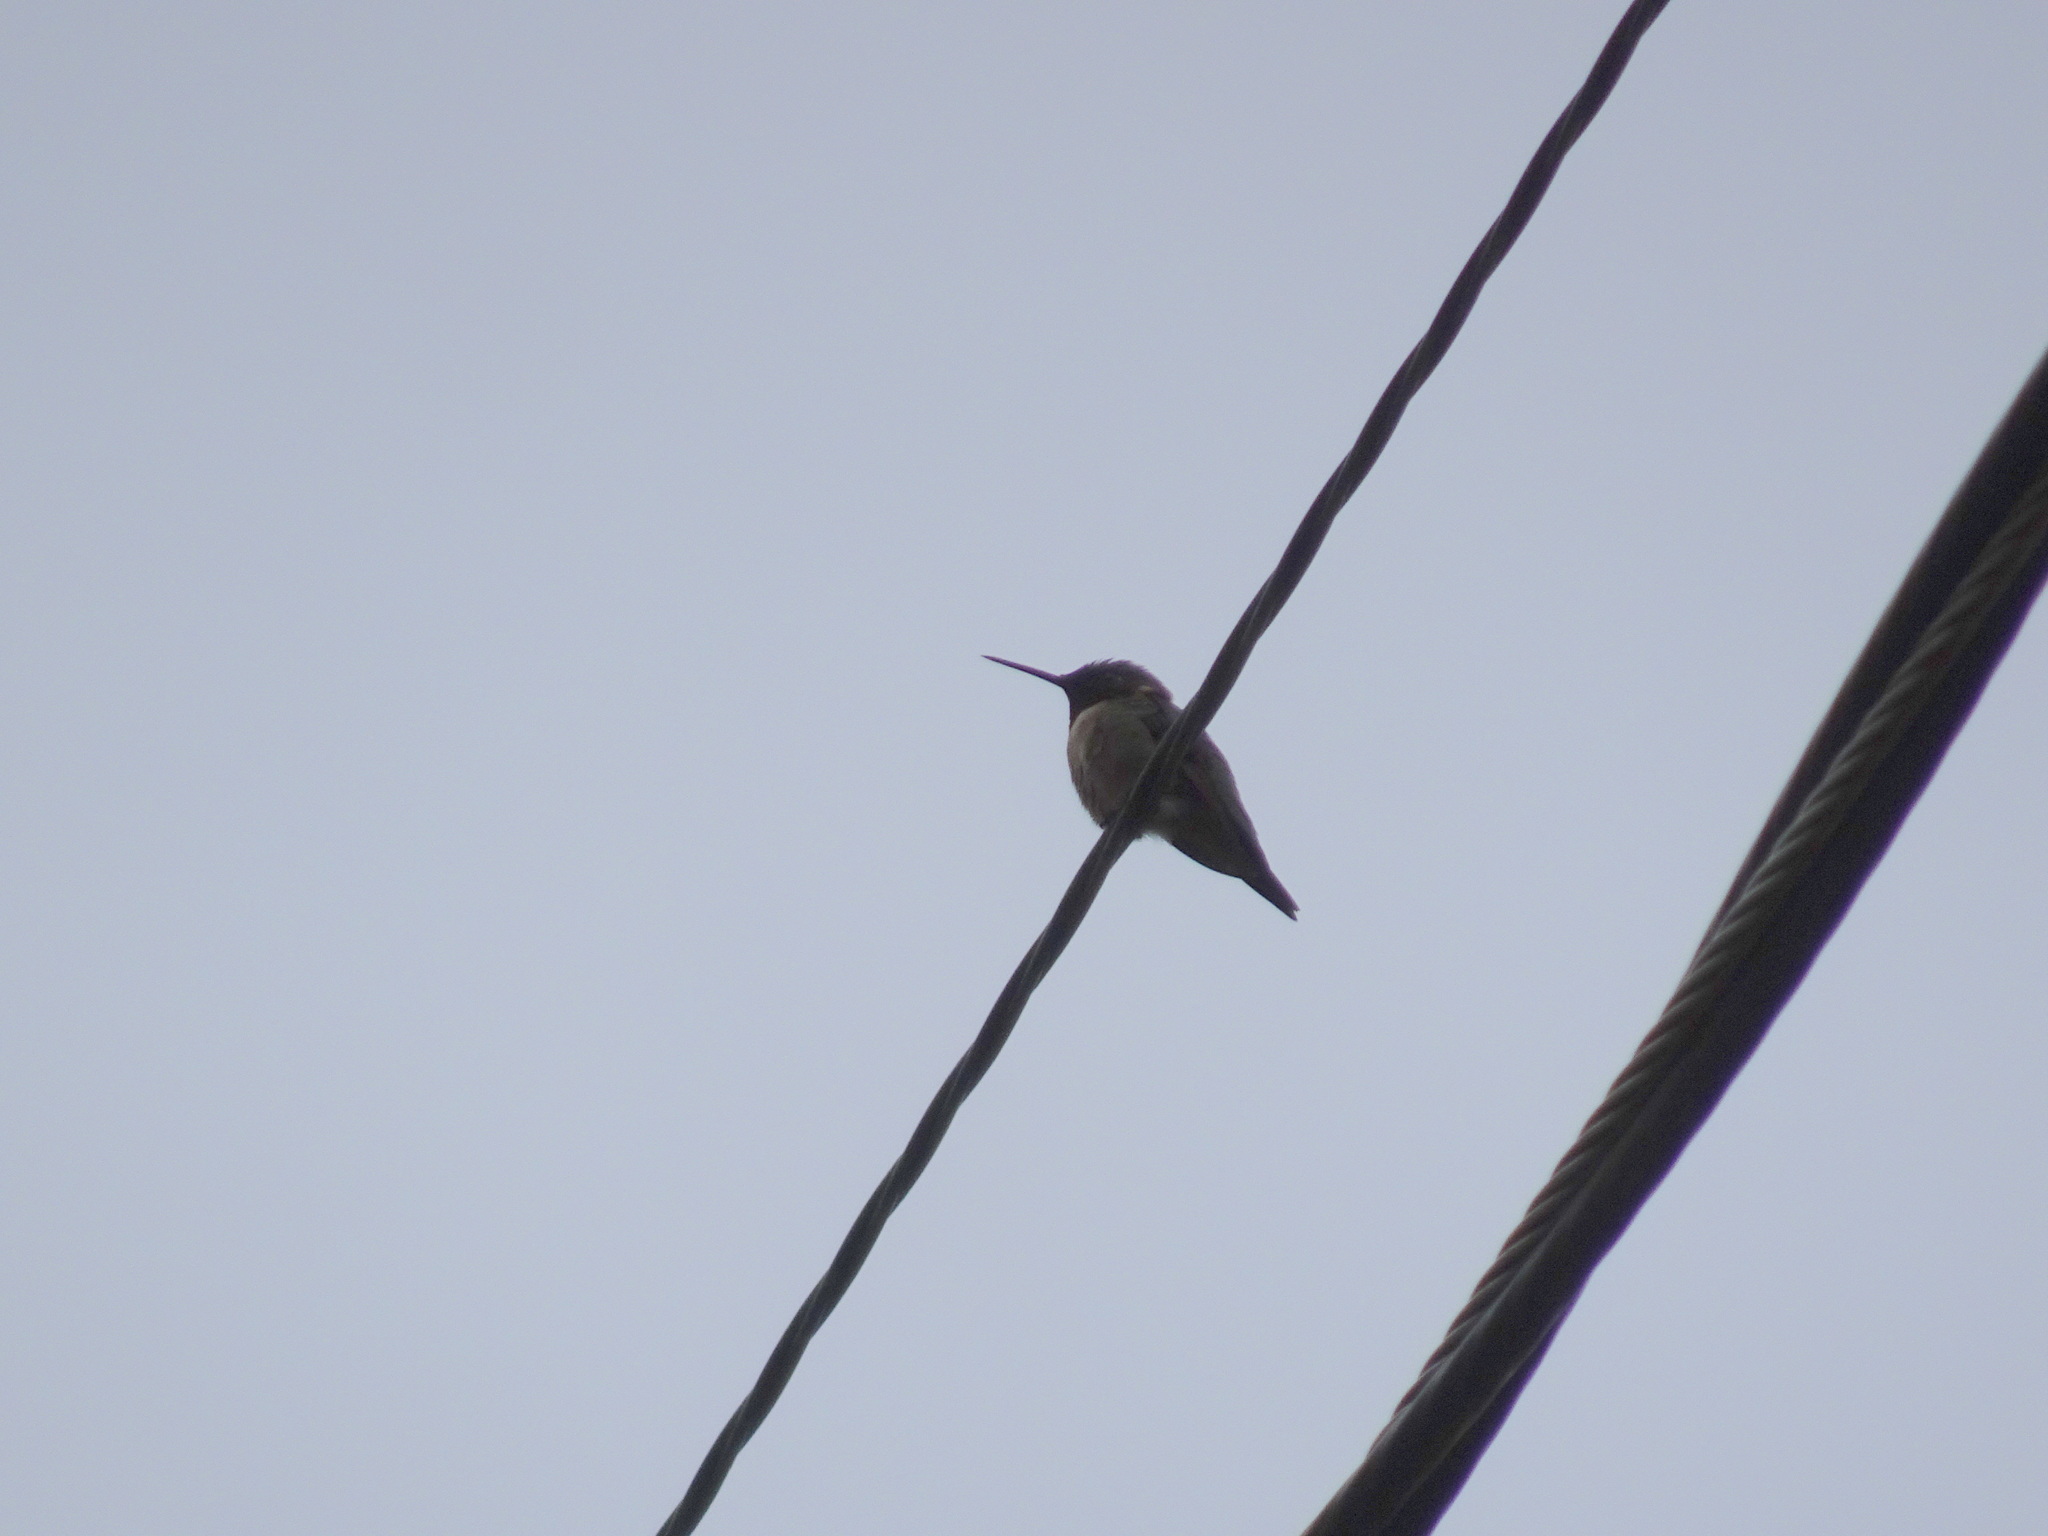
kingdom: Animalia
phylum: Chordata
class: Aves
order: Apodiformes
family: Trochilidae
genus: Archilochus
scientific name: Archilochus colubris
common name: Ruby-throated hummingbird
